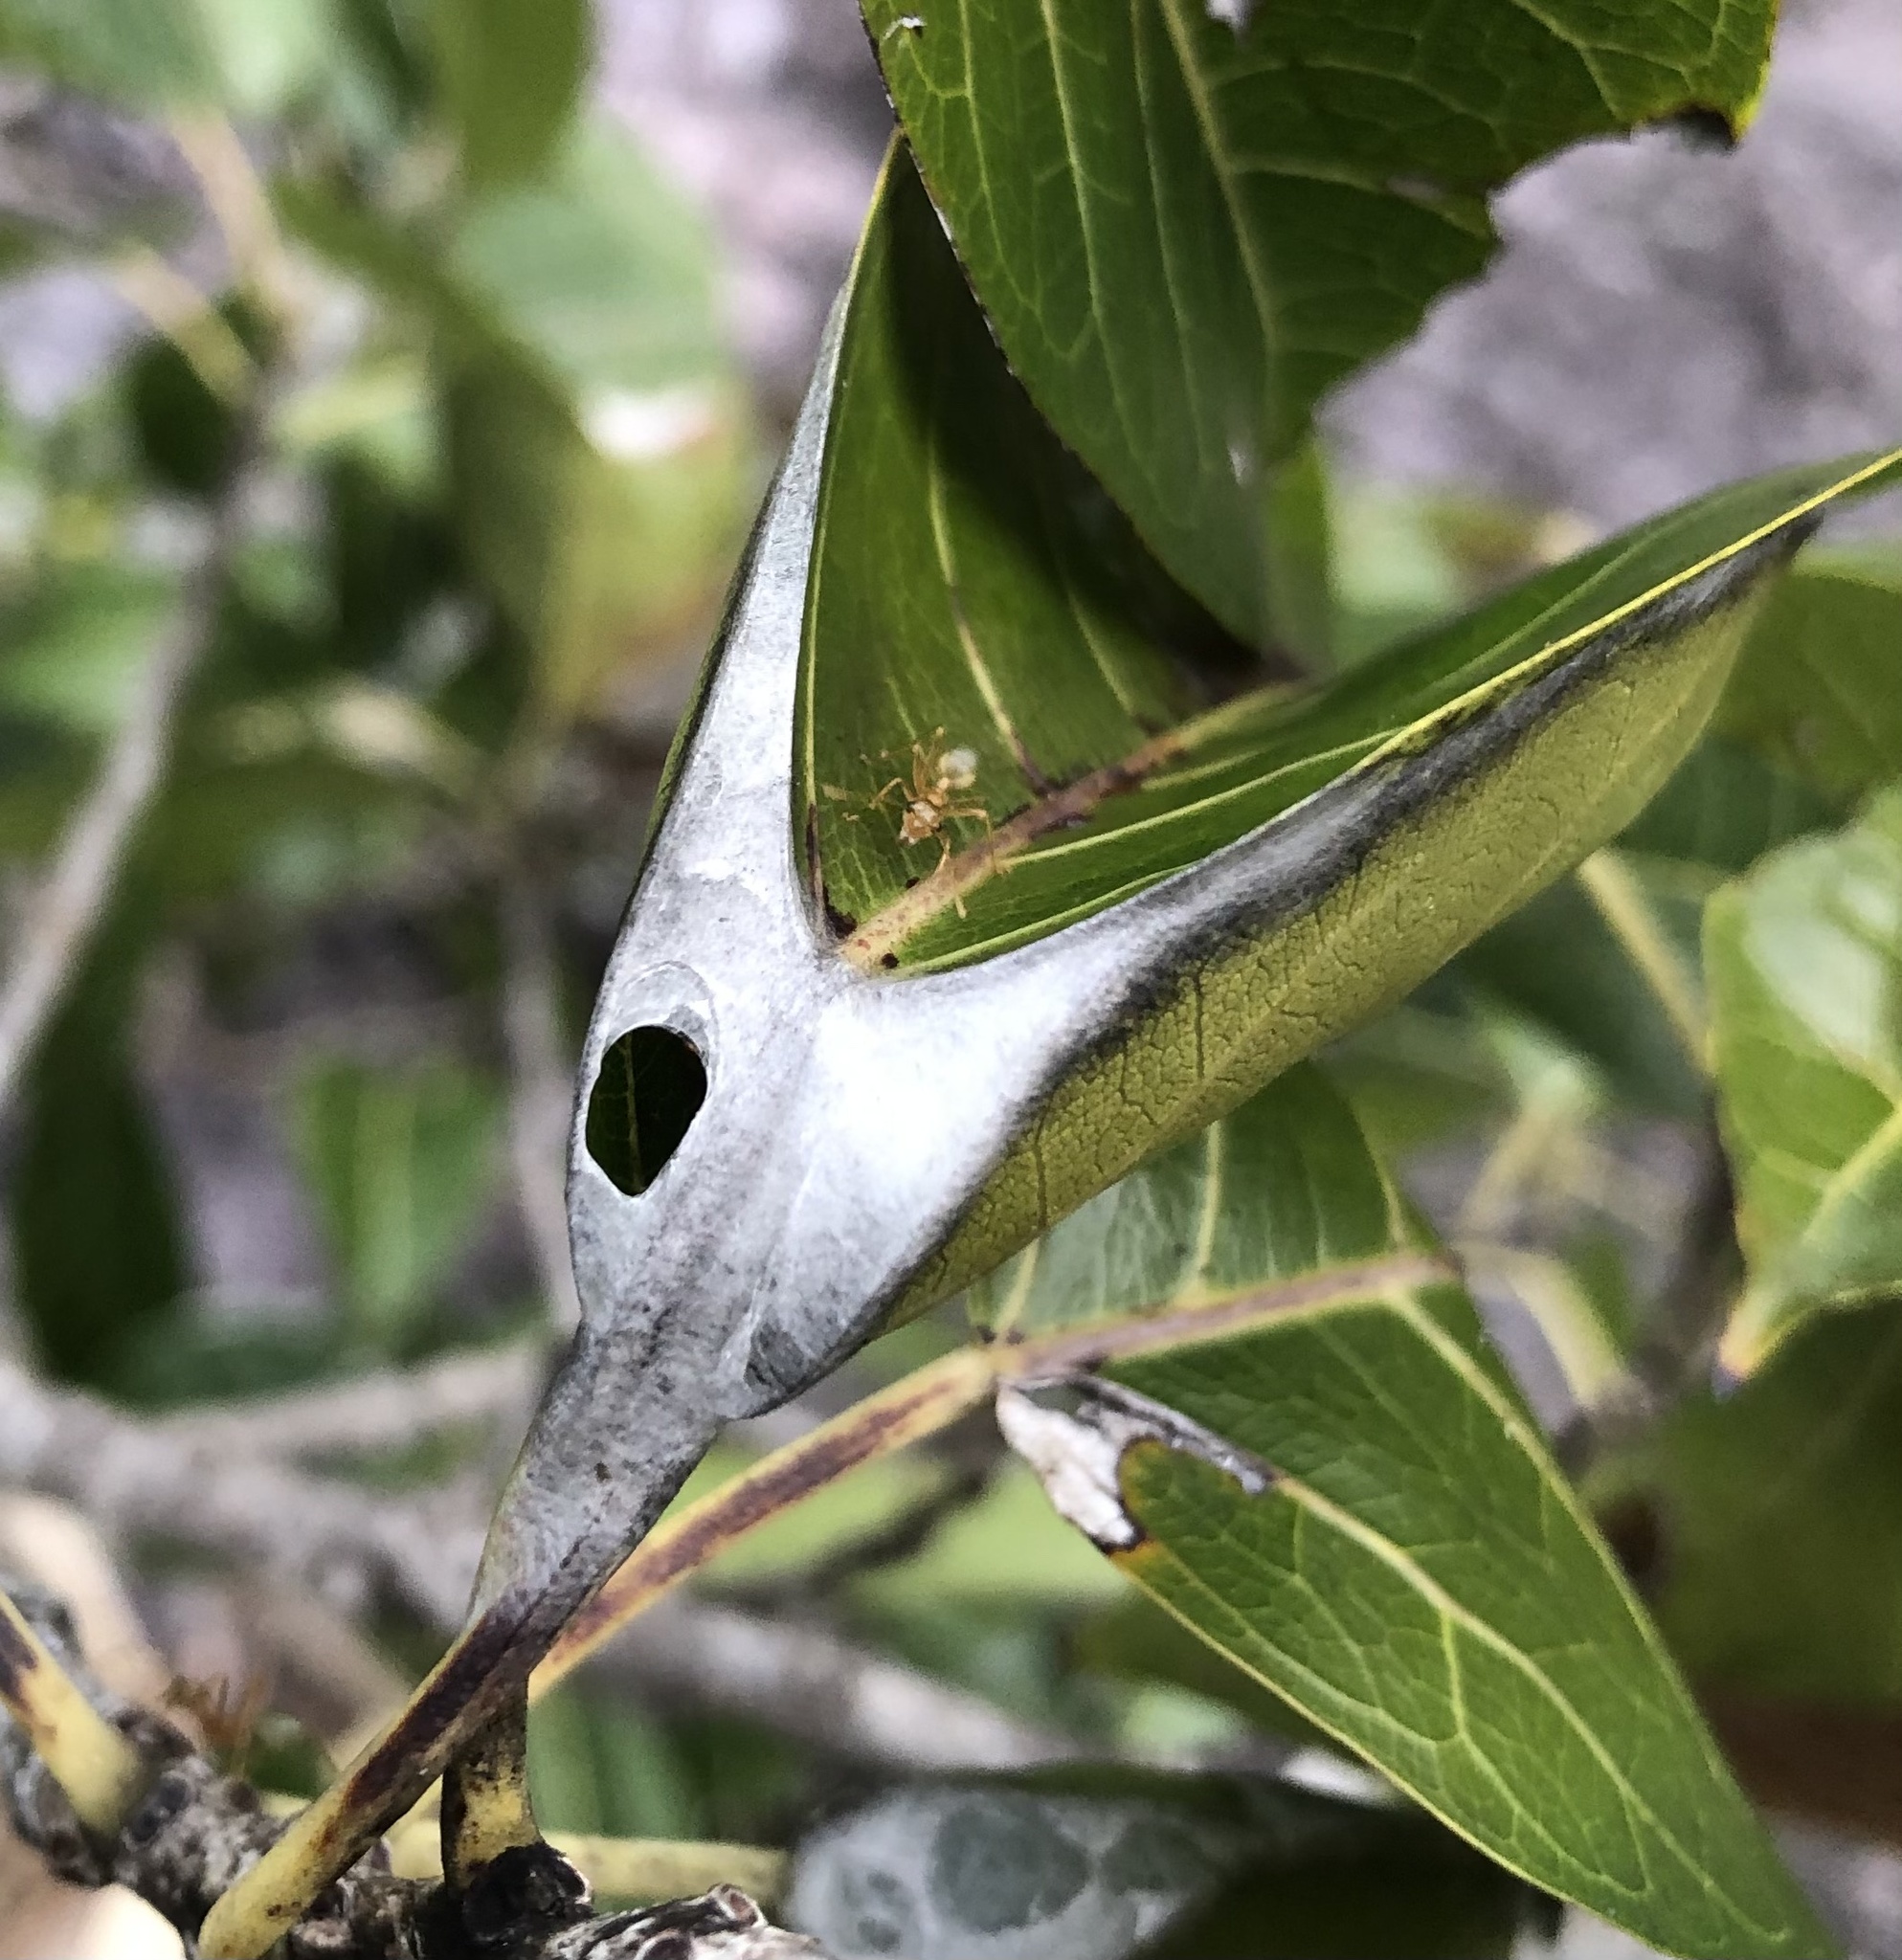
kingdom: Animalia
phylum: Arthropoda
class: Insecta
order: Hymenoptera
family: Formicidae
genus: Oecophylla
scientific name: Oecophylla smaragdina
